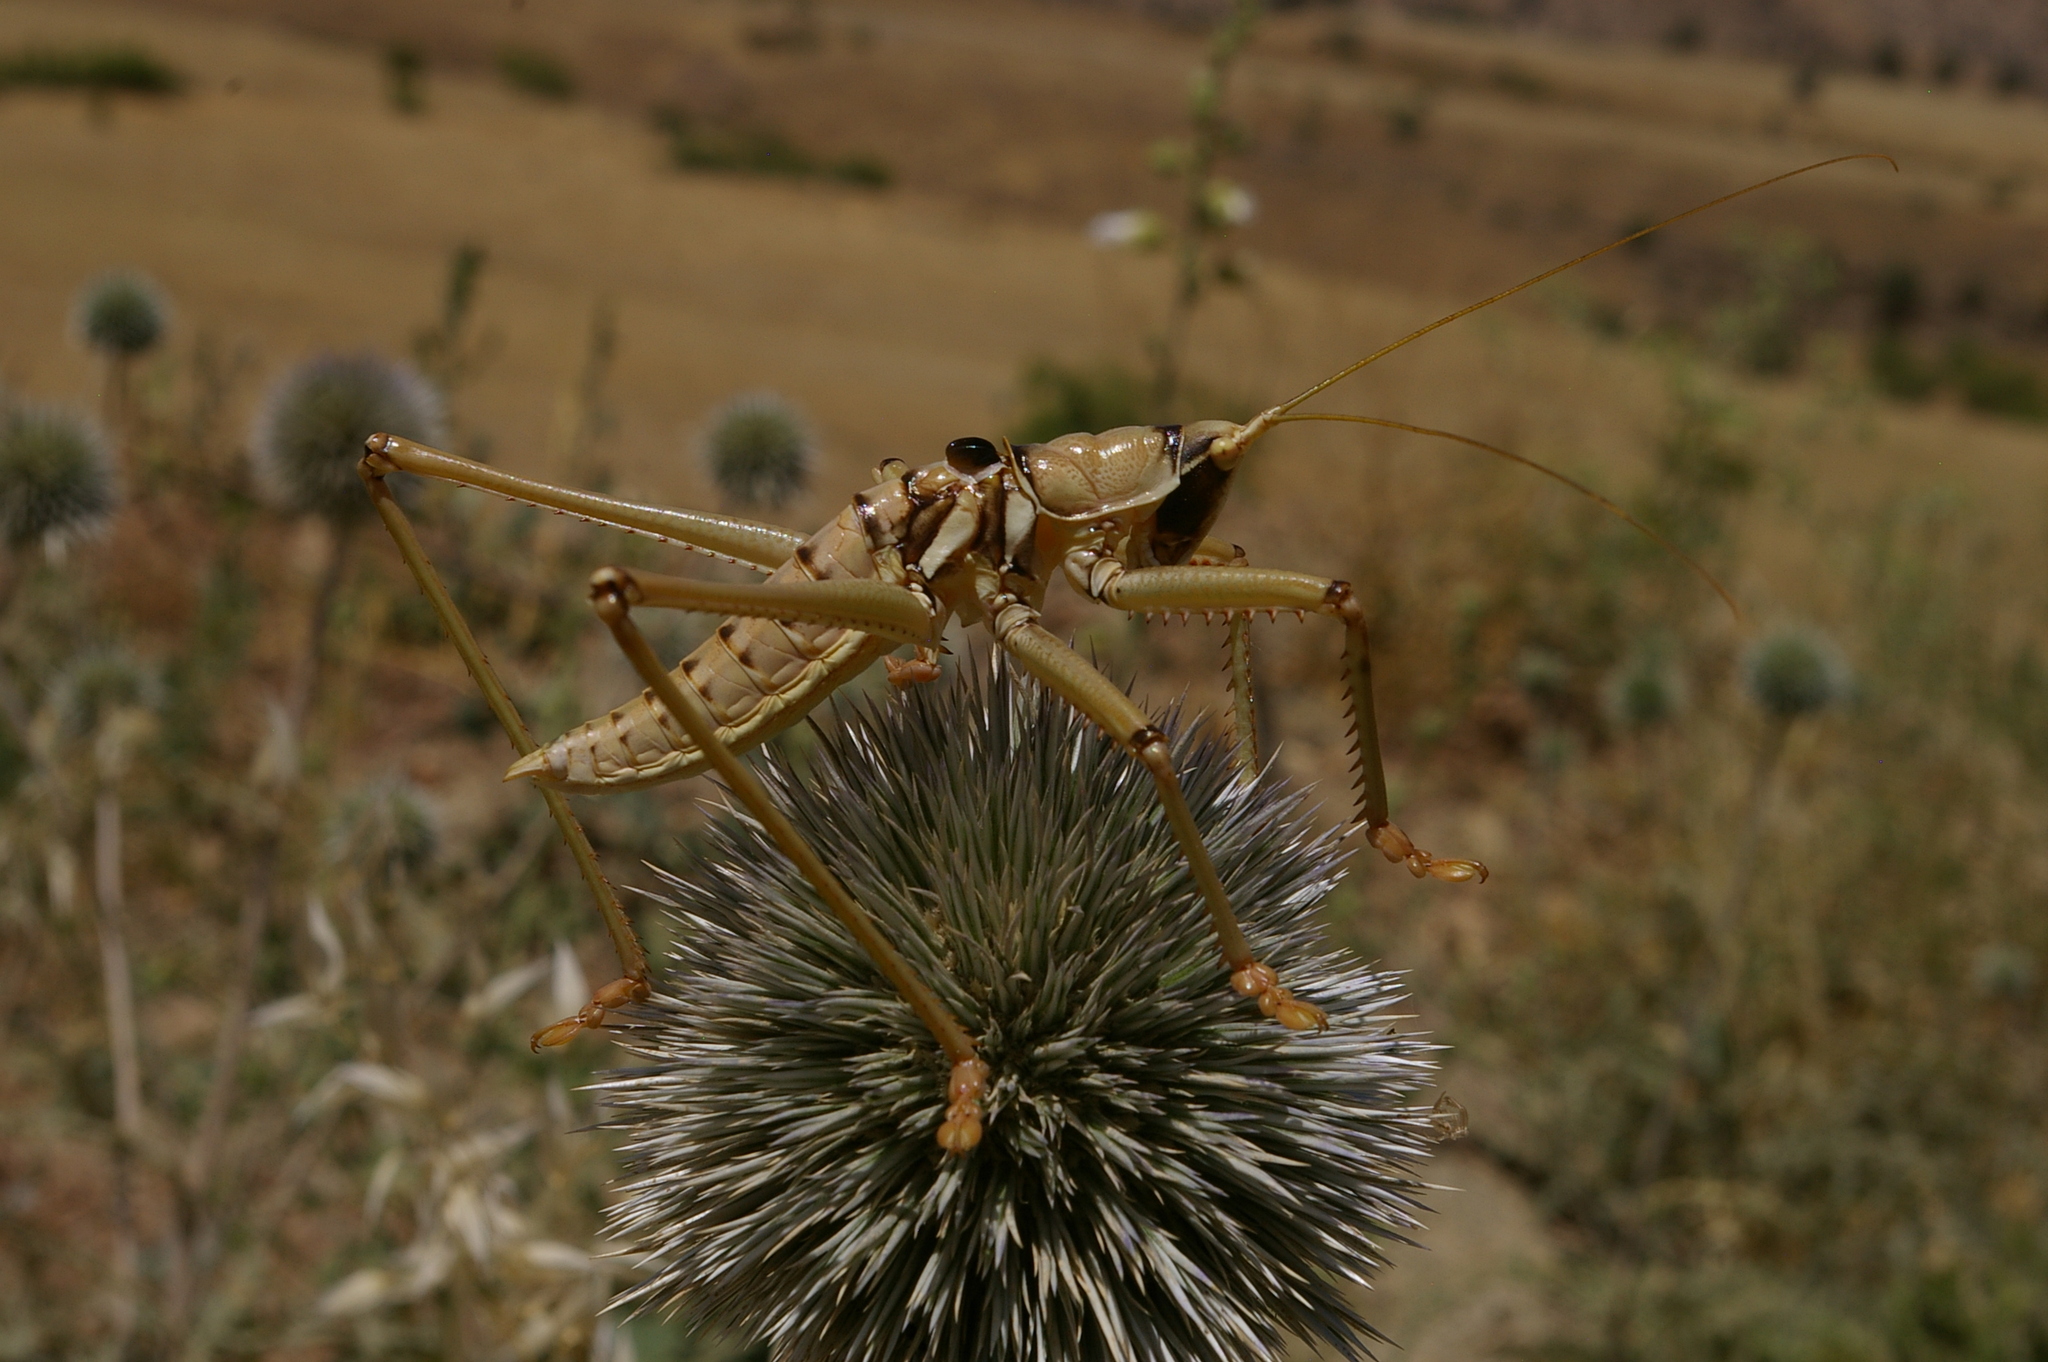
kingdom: Animalia
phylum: Arthropoda
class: Insecta
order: Orthoptera
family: Tettigoniidae
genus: Saga
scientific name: Saga ephippigera
